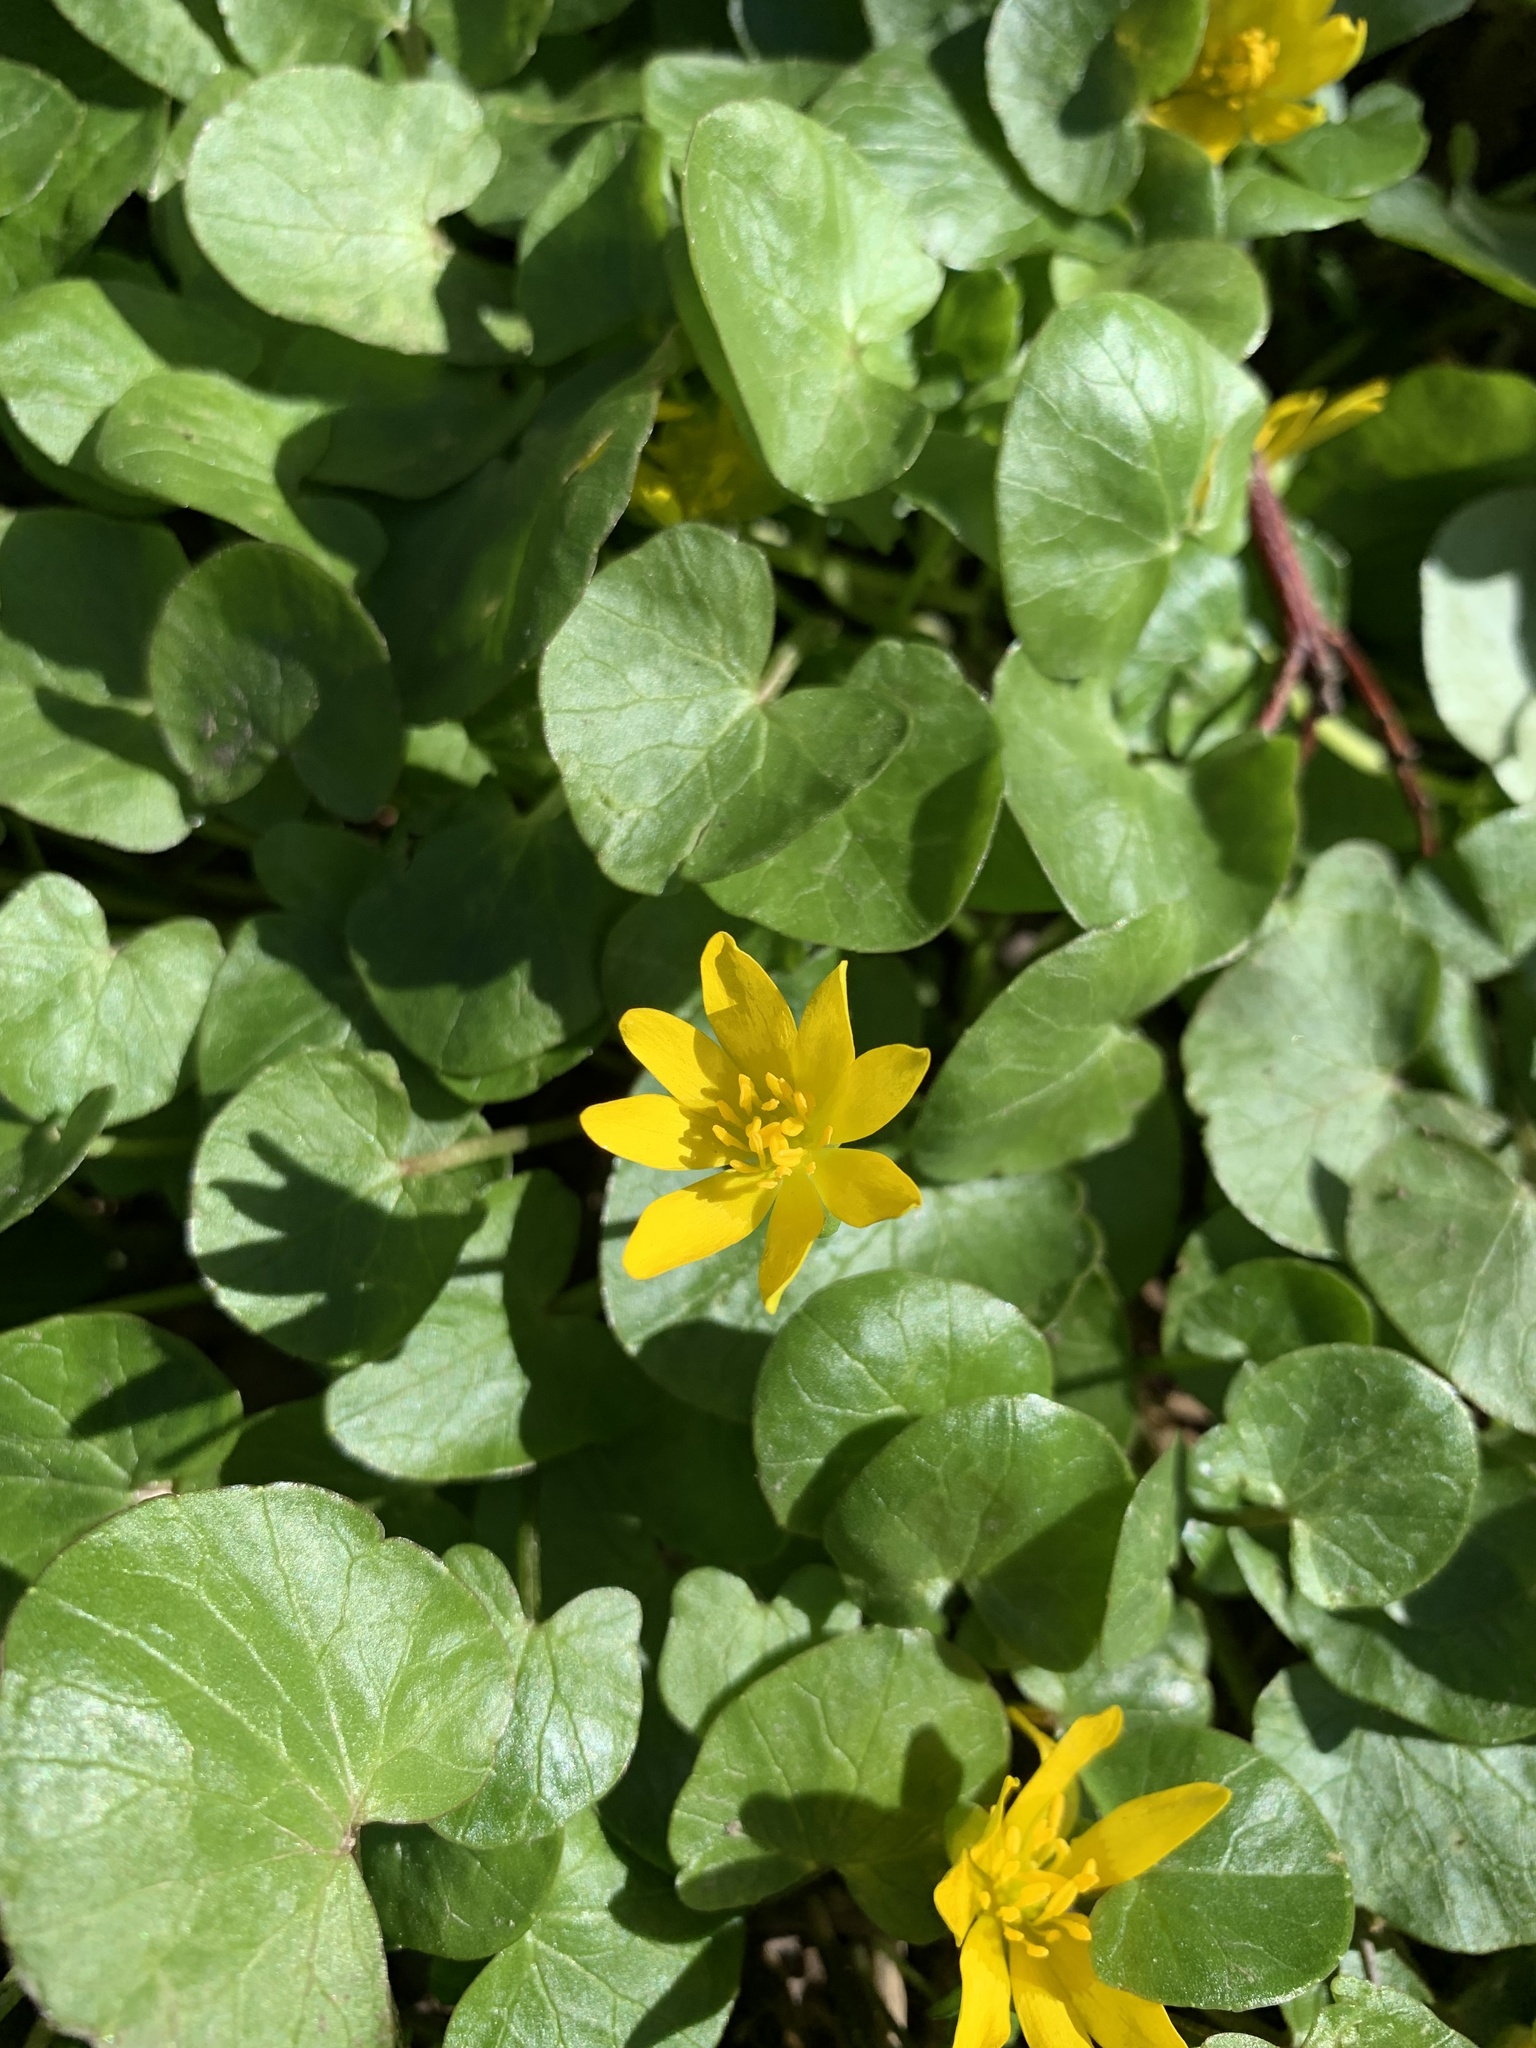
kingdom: Plantae
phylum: Tracheophyta
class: Magnoliopsida
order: Ranunculales
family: Ranunculaceae
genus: Ficaria
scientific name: Ficaria verna
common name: Lesser celandine
